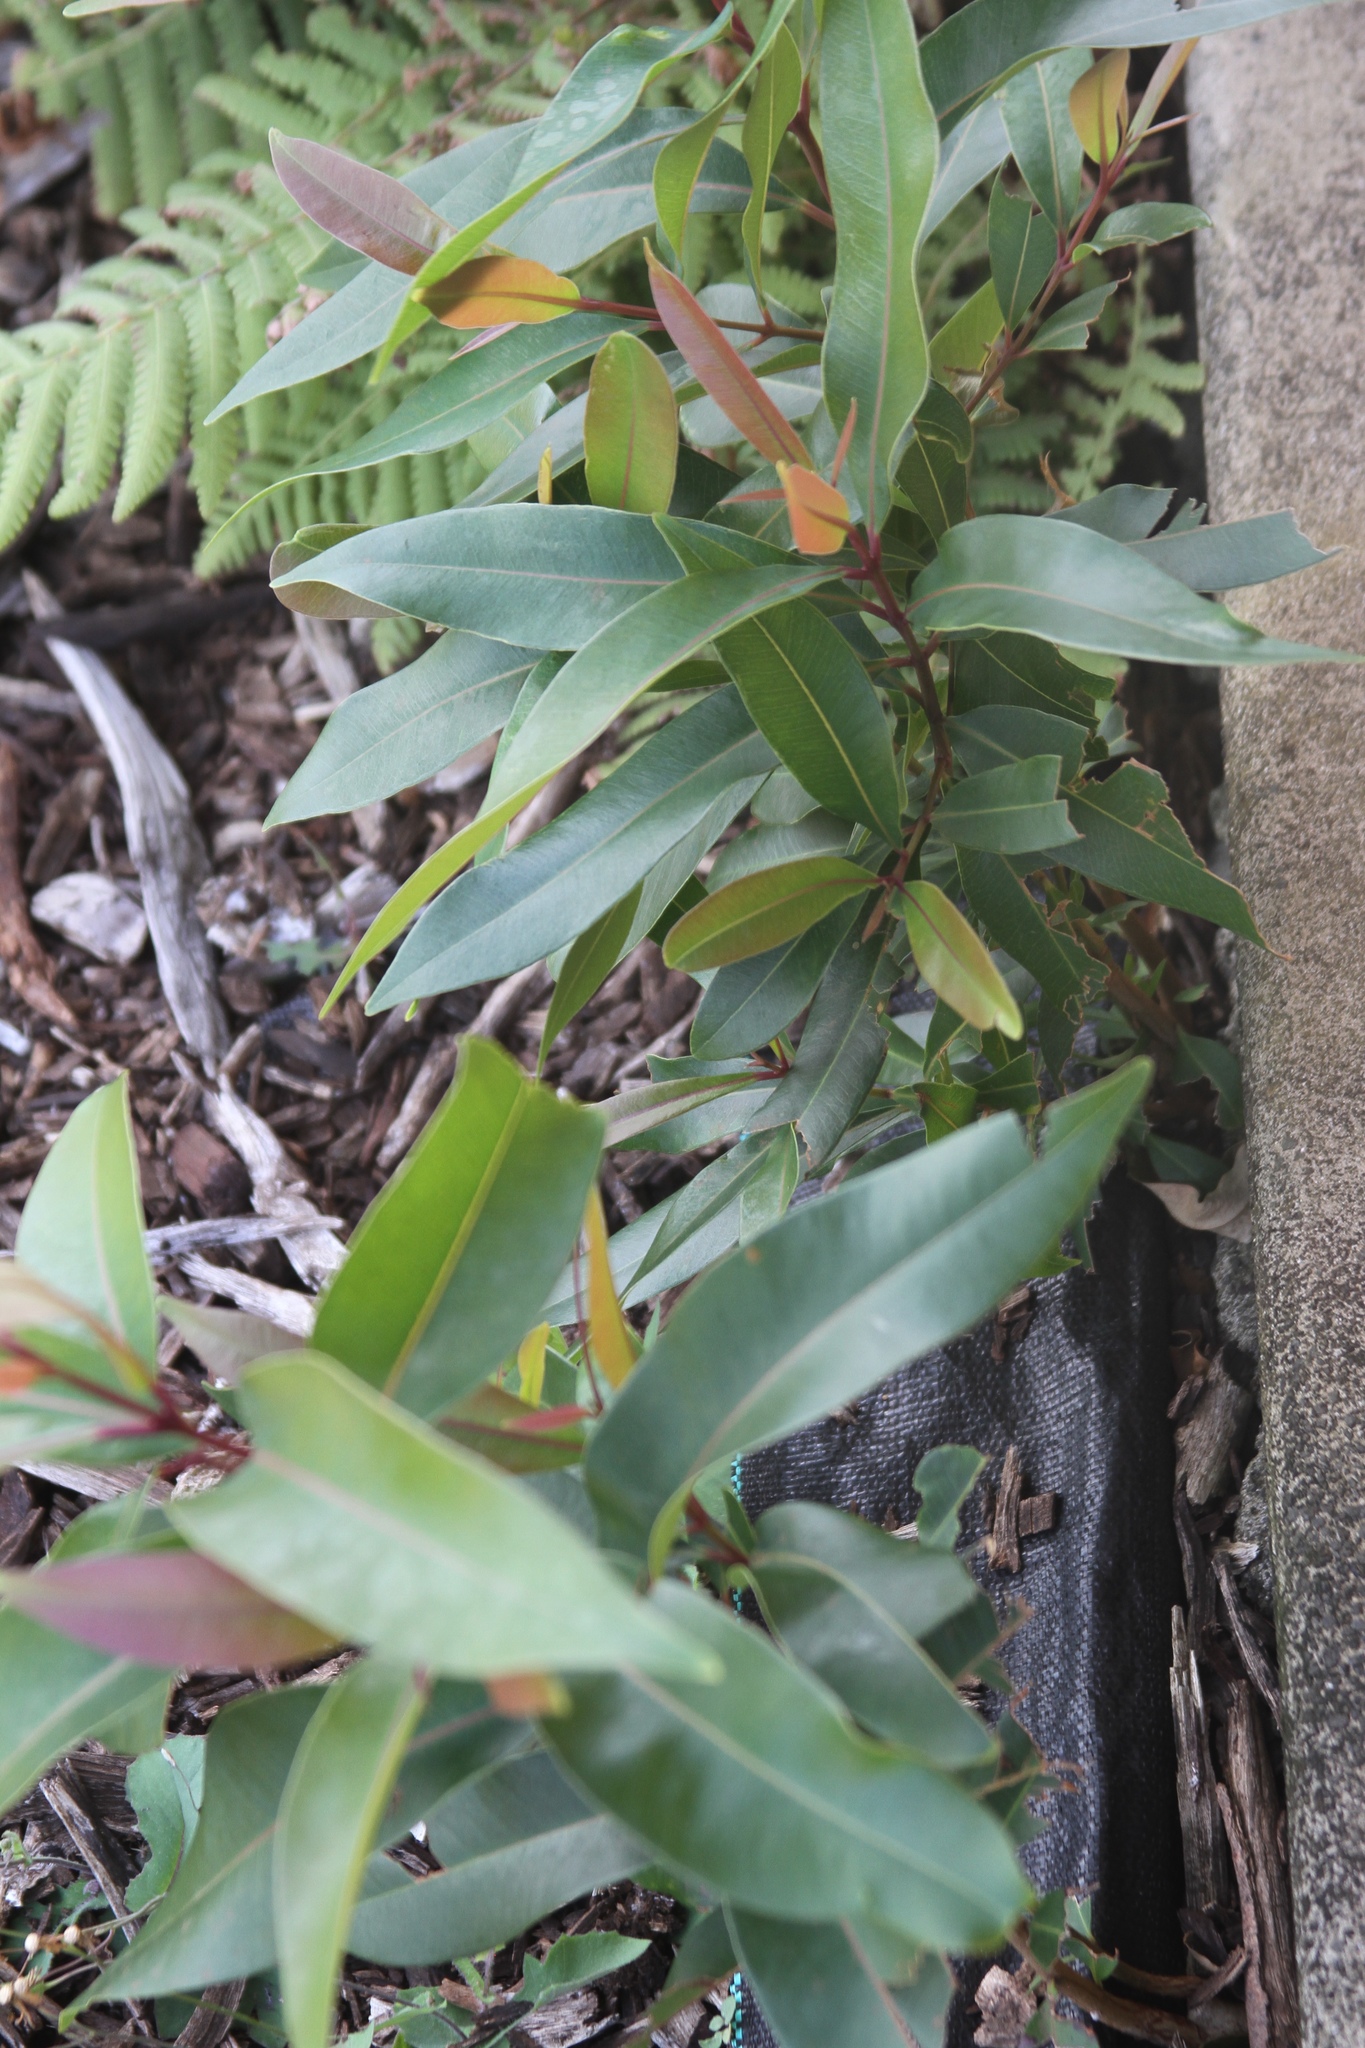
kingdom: Plantae
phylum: Tracheophyta
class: Magnoliopsida
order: Myrtales
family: Myrtaceae
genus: Syzygium
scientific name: Syzygium cumini
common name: Java plum
